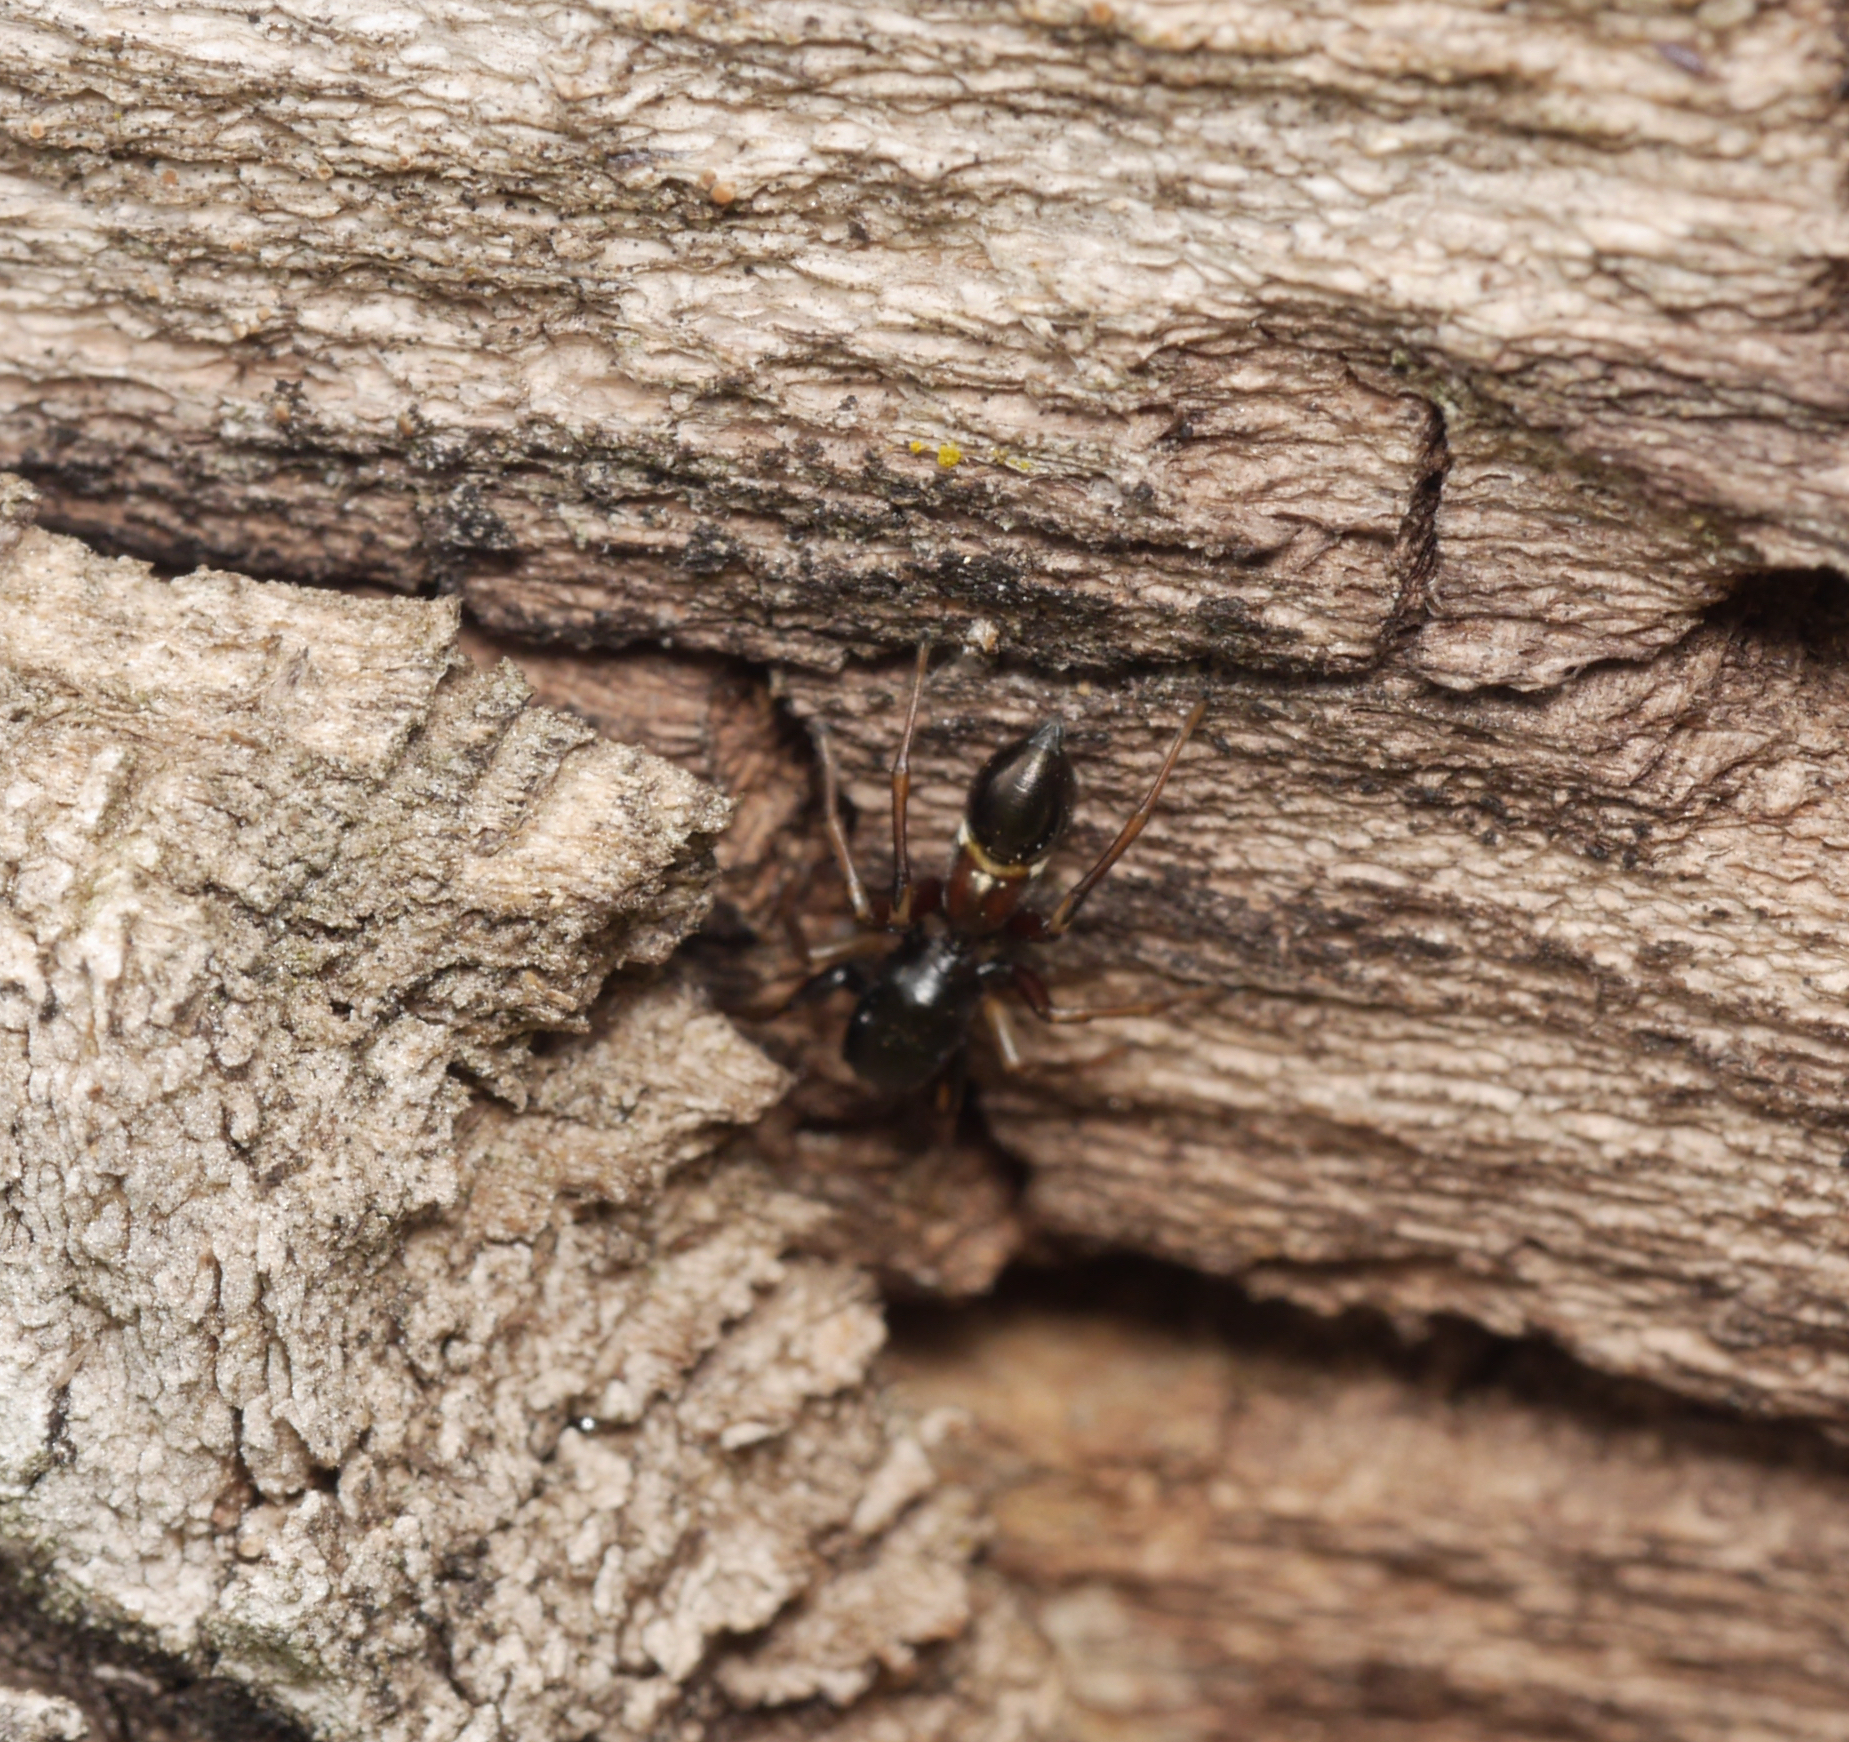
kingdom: Animalia
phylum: Arthropoda
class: Arachnida
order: Araneae
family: Salticidae
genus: Leptorchestes
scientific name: Leptorchestes berolinensis
